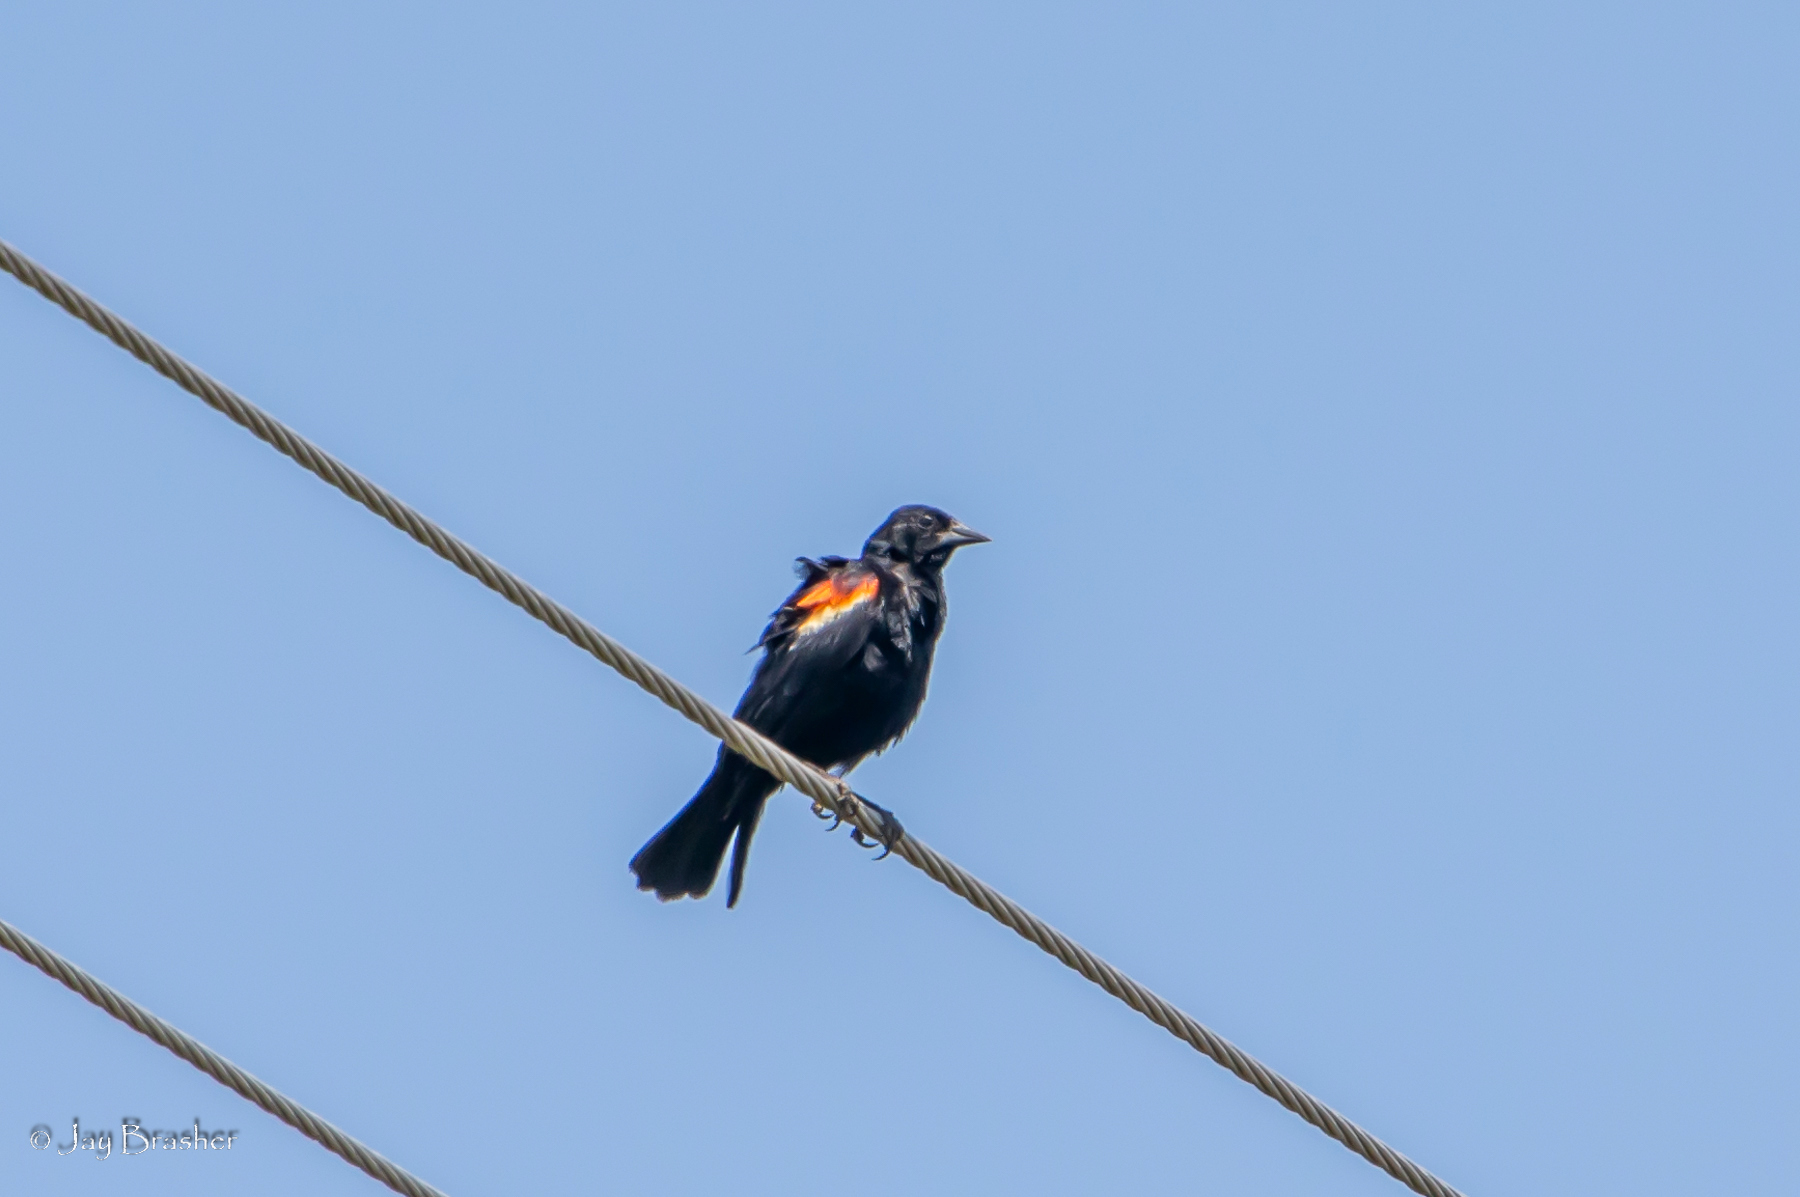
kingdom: Animalia
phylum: Chordata
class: Aves
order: Passeriformes
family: Icteridae
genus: Agelaius
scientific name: Agelaius phoeniceus
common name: Red-winged blackbird
